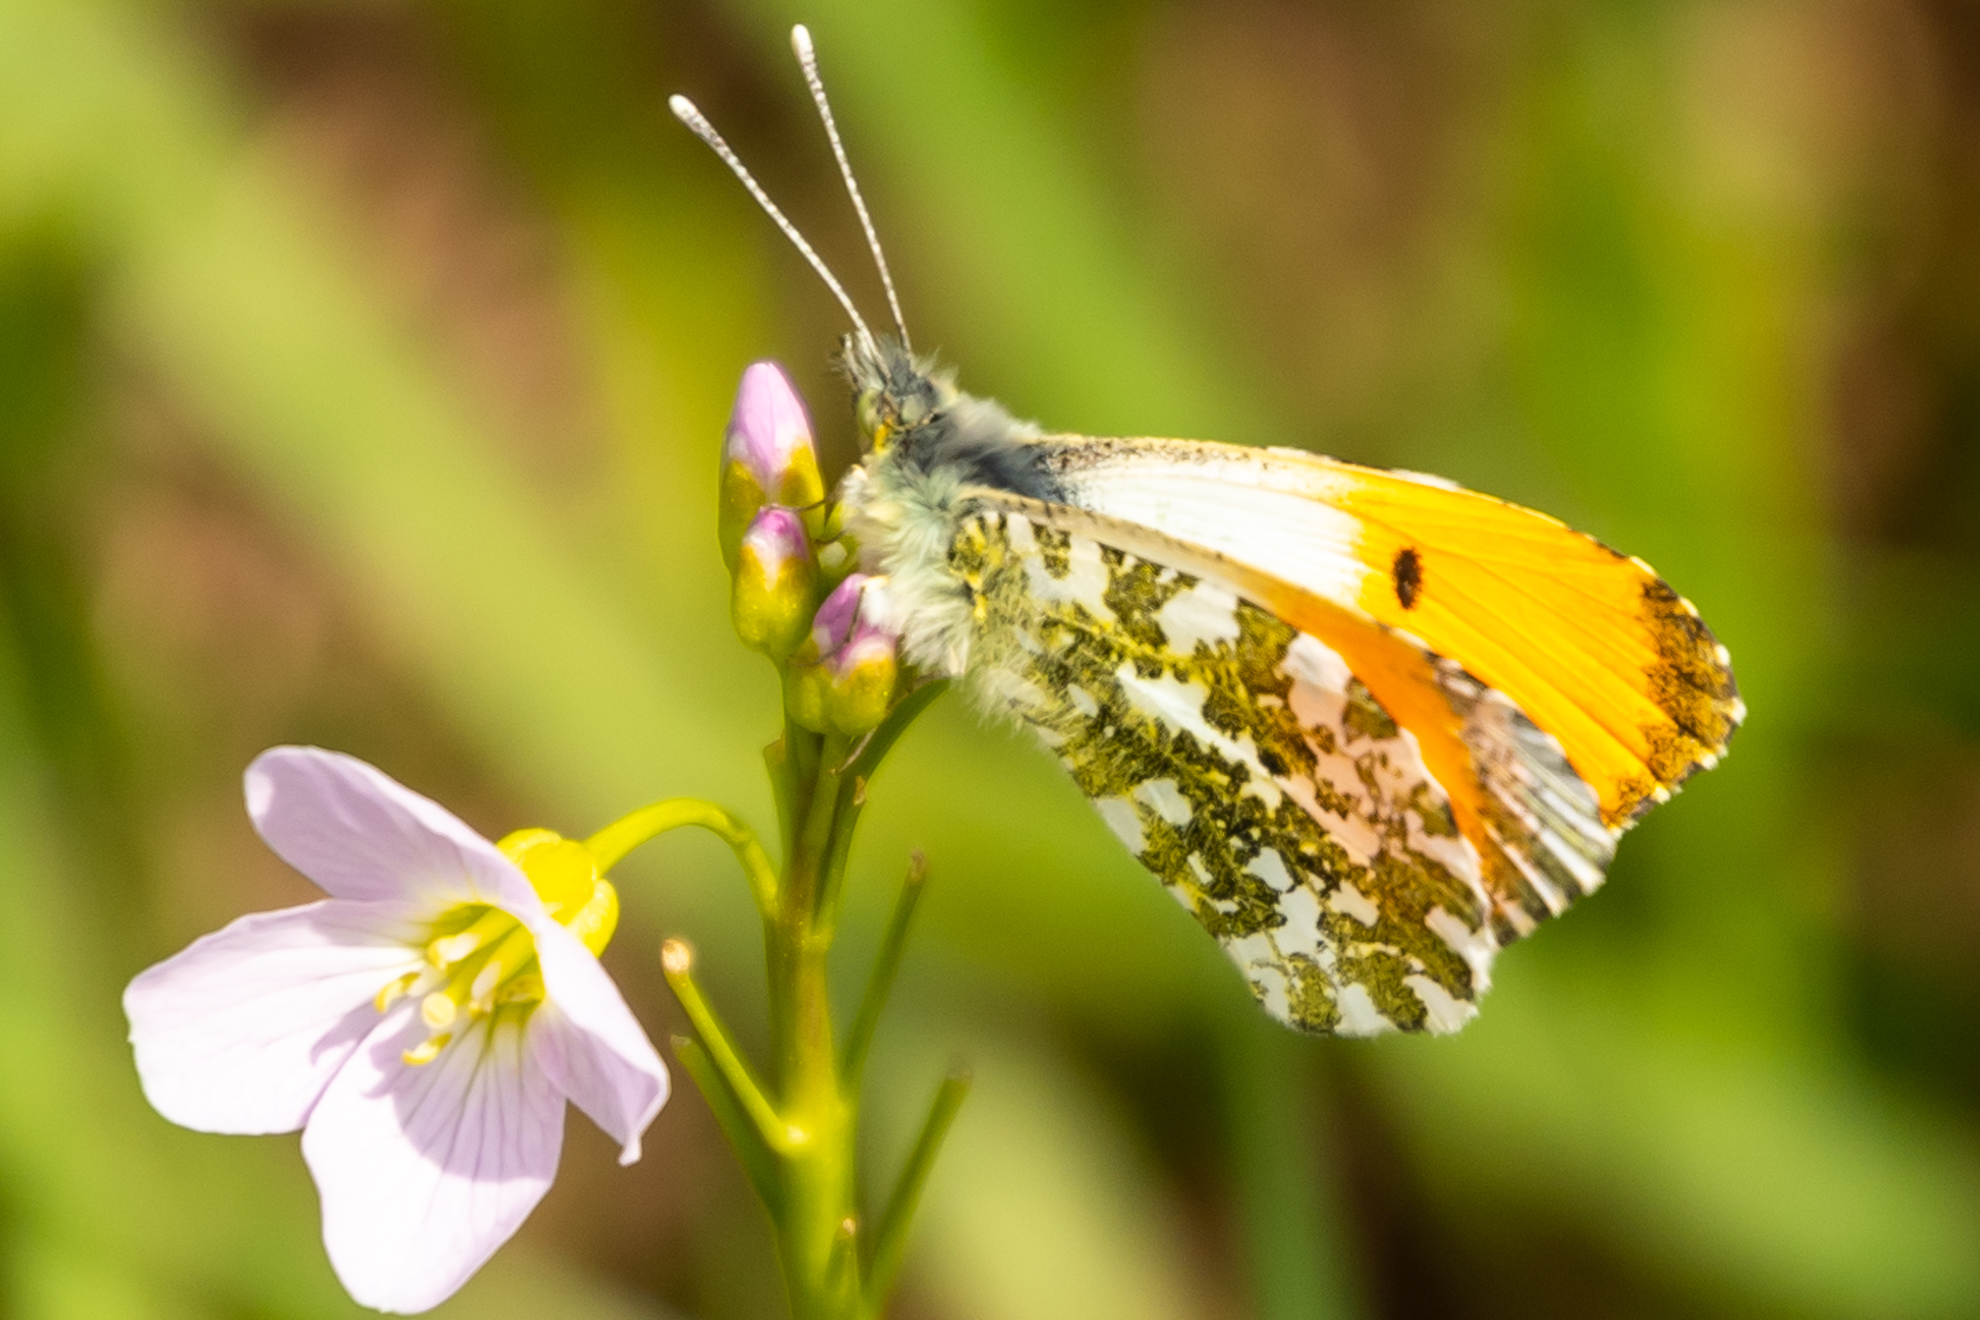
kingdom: Animalia
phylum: Arthropoda
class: Insecta
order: Lepidoptera
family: Pieridae
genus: Anthocharis
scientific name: Anthocharis cardamines
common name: Orange-tip
